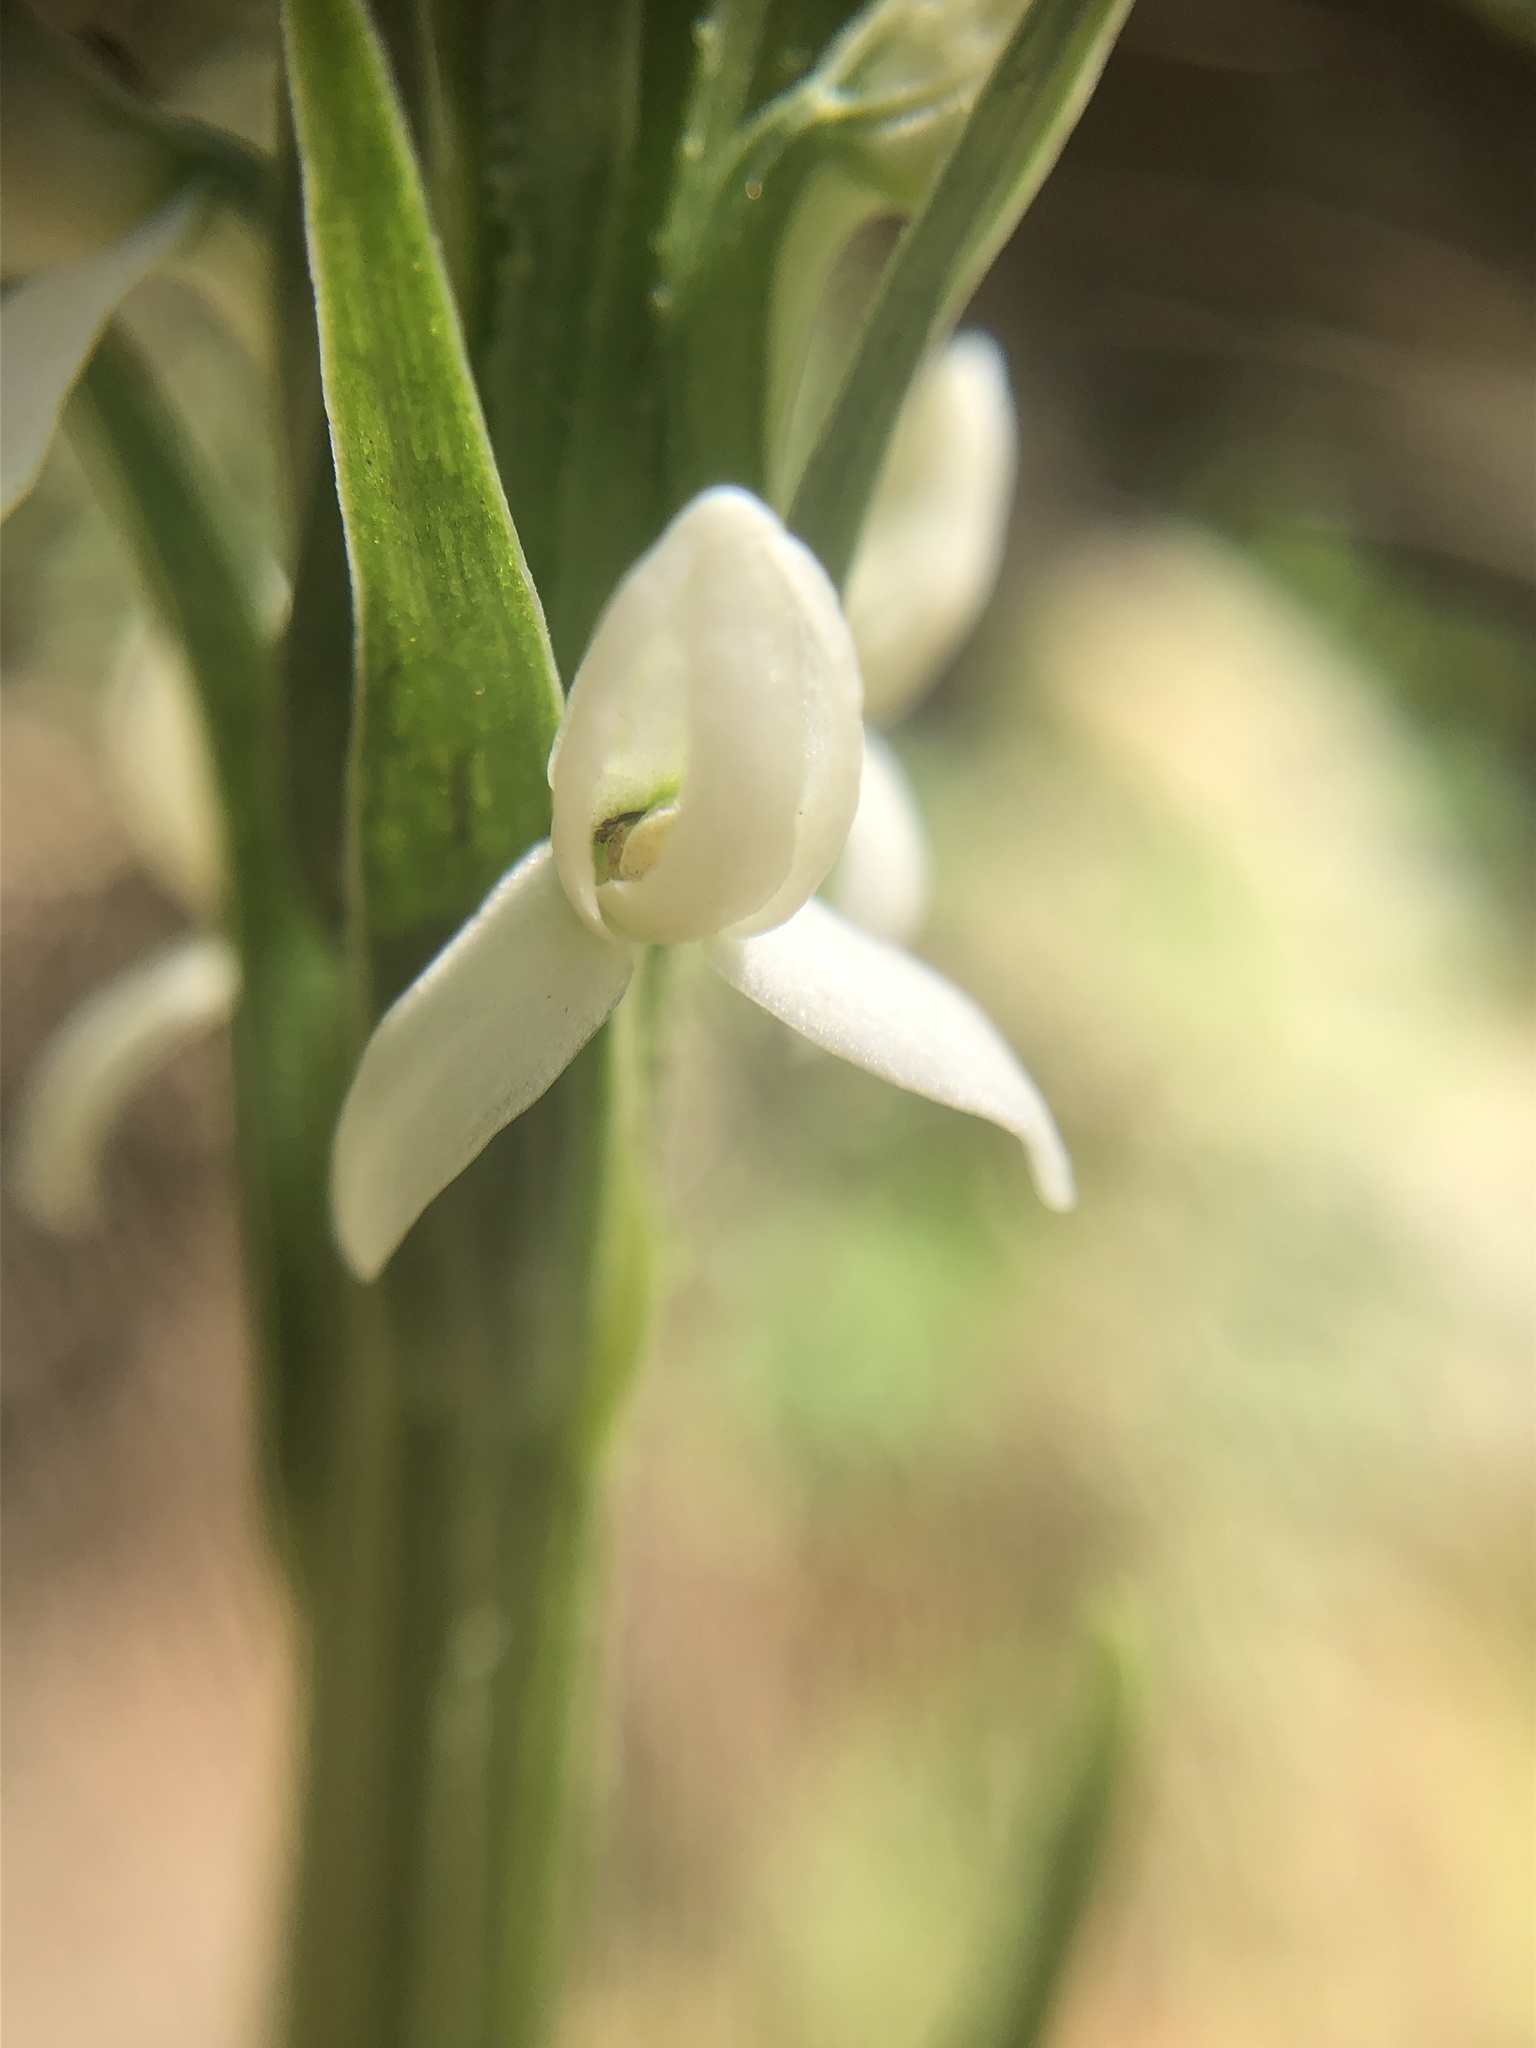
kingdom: Plantae
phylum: Tracheophyta
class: Liliopsida
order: Asparagales
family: Orchidaceae
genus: Platanthera
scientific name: Platanthera dilatata
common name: Bog candles
